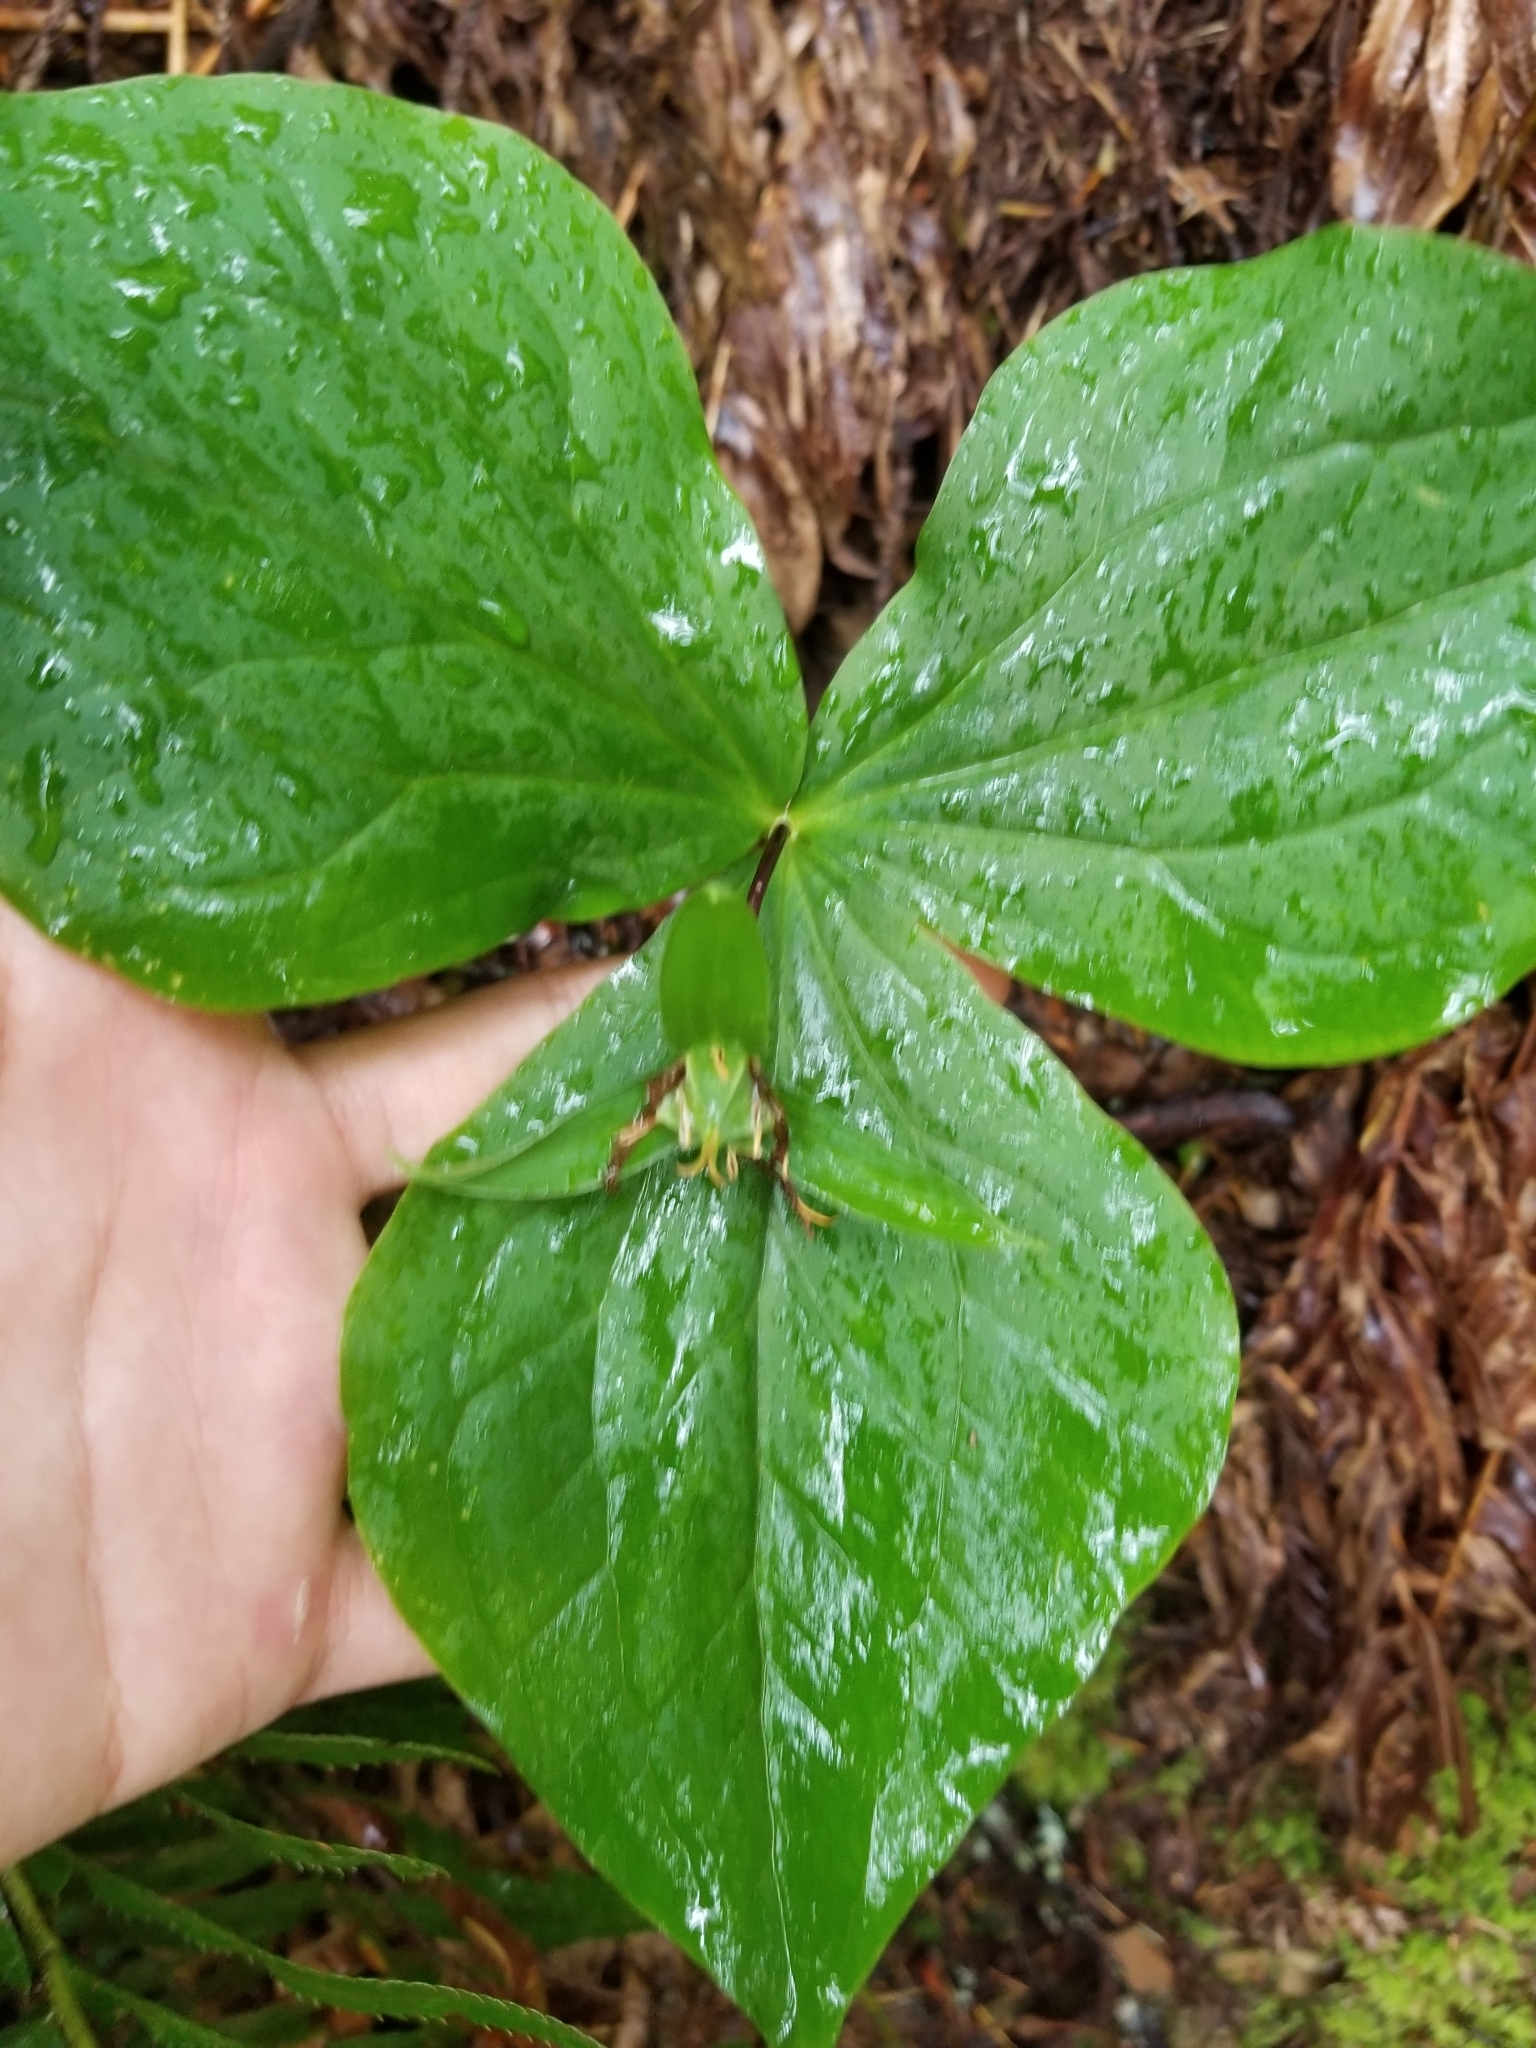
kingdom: Plantae
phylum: Tracheophyta
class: Liliopsida
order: Liliales
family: Melanthiaceae
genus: Trillium
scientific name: Trillium ovatum
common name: Pacific trillium
